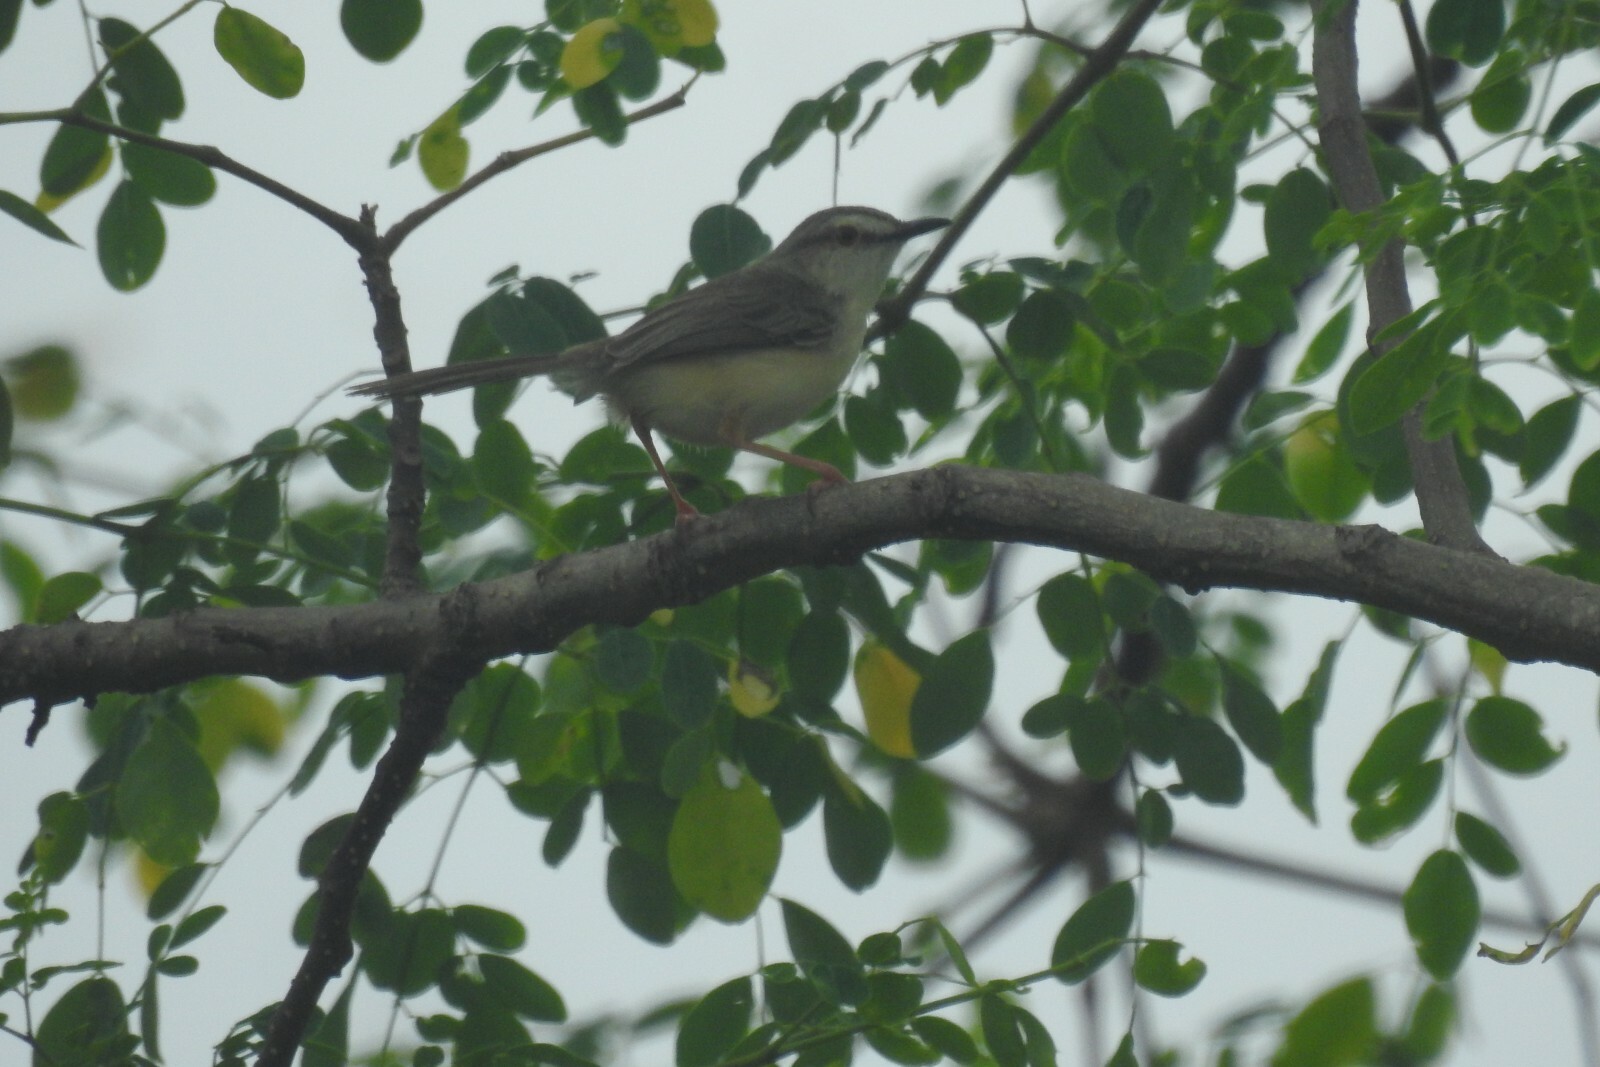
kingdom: Animalia
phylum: Chordata
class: Aves
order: Passeriformes
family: Cisticolidae
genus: Prinia
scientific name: Prinia inornata
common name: Plain prinia
